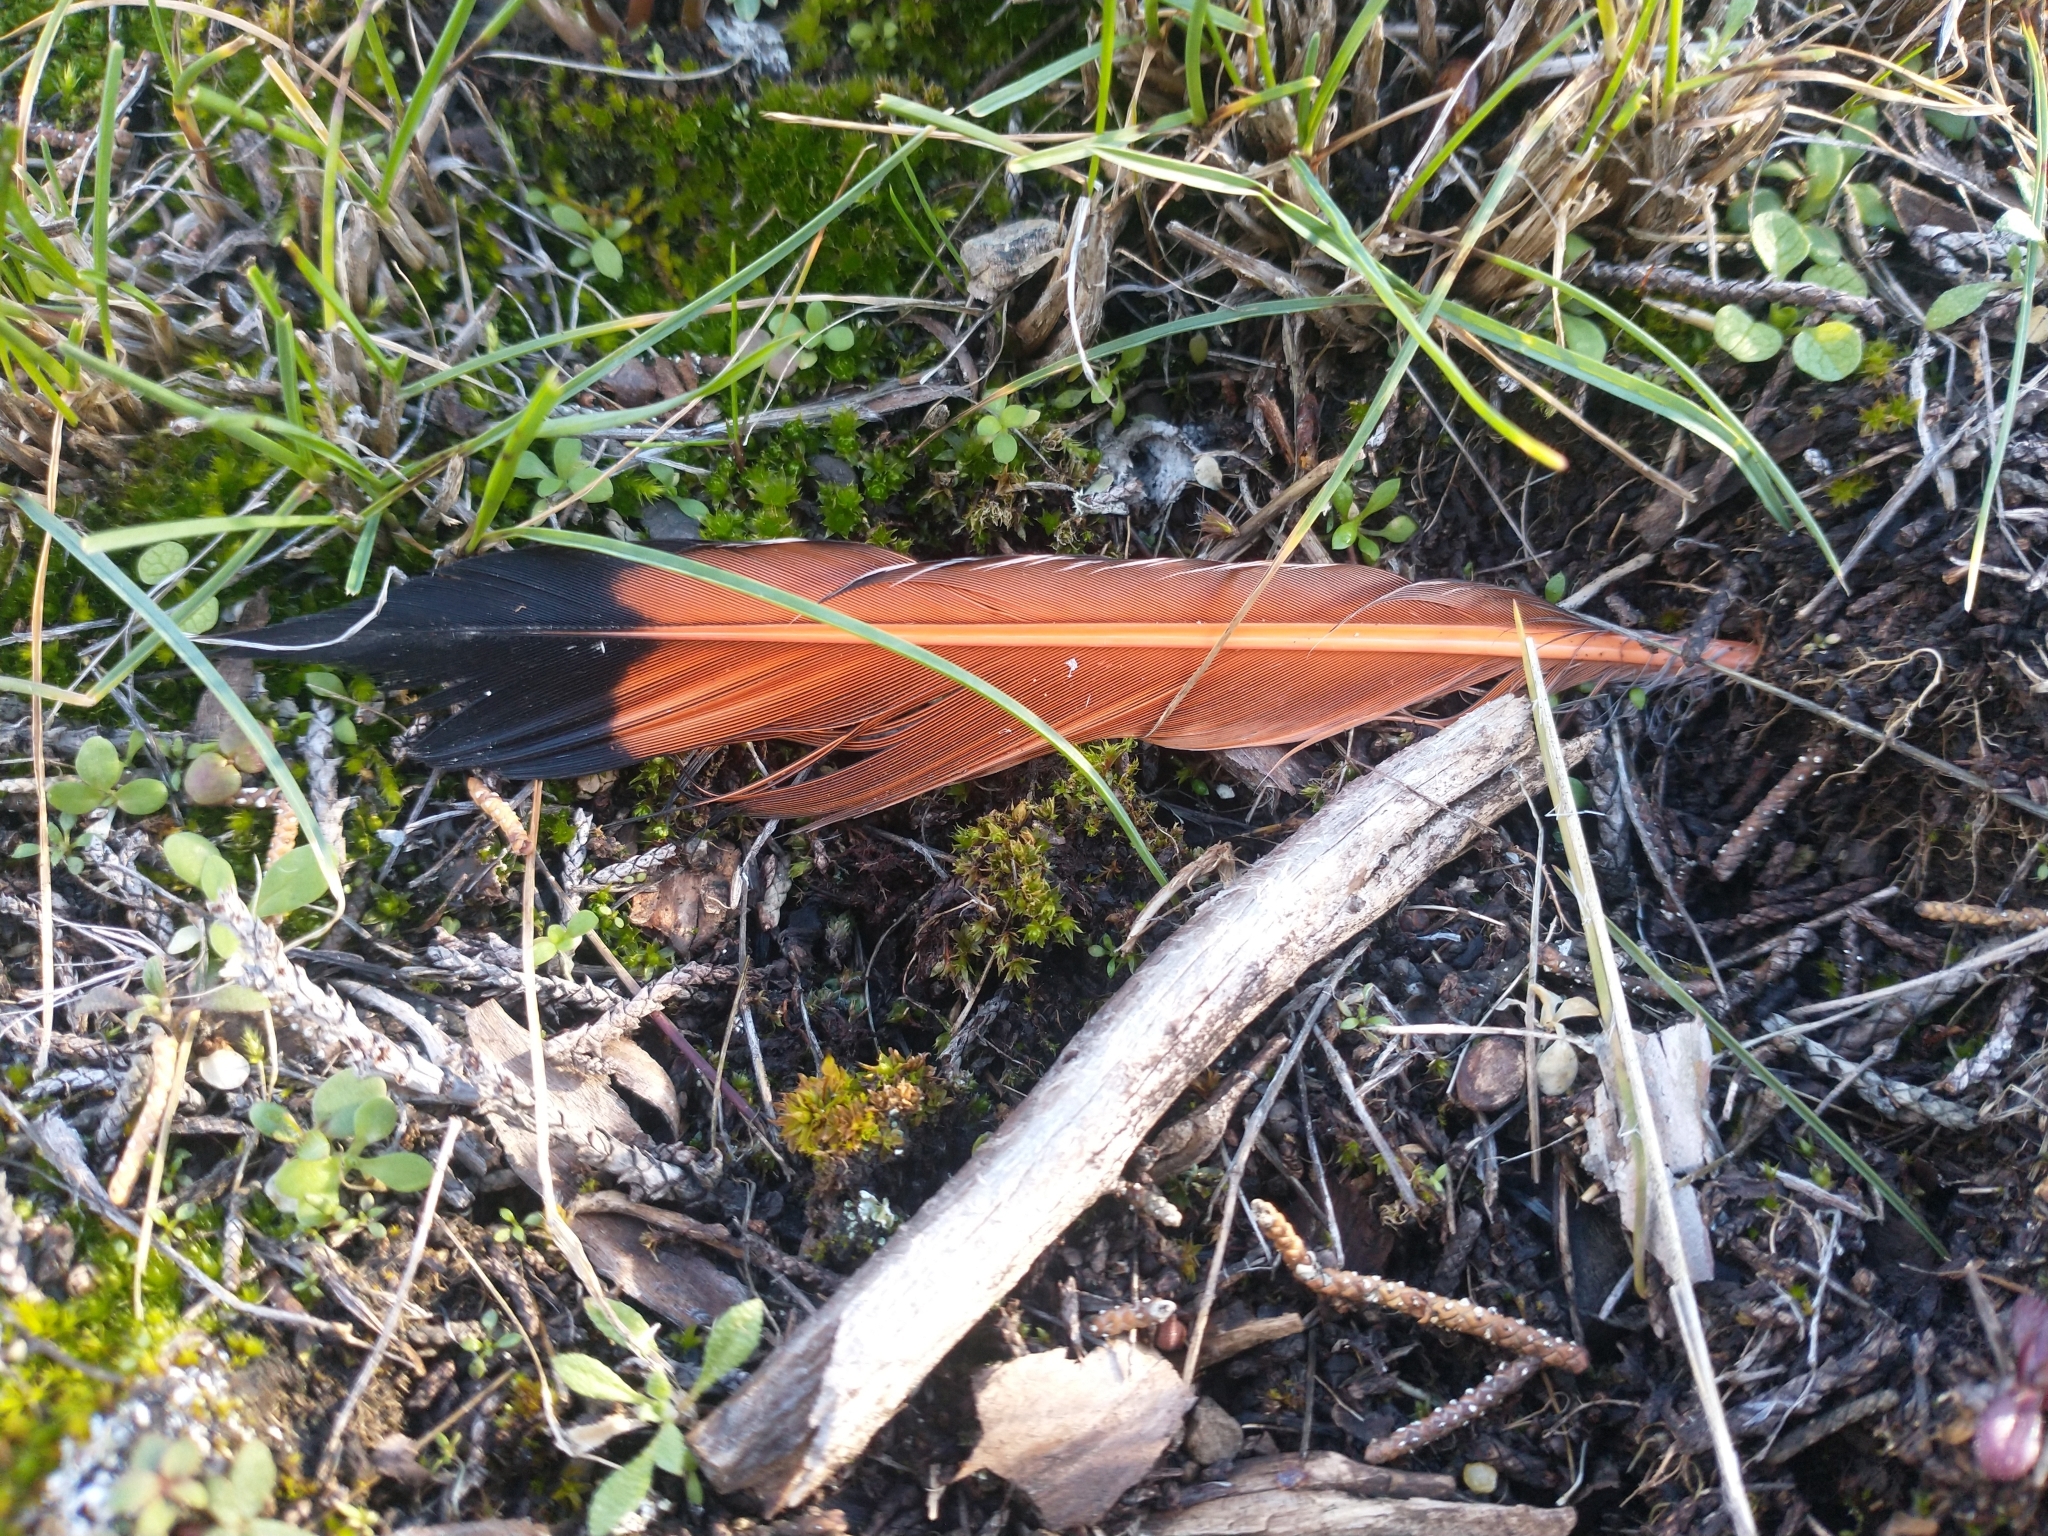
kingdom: Animalia
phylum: Chordata
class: Aves
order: Piciformes
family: Picidae
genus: Colaptes
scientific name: Colaptes auratus
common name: Northern flicker
